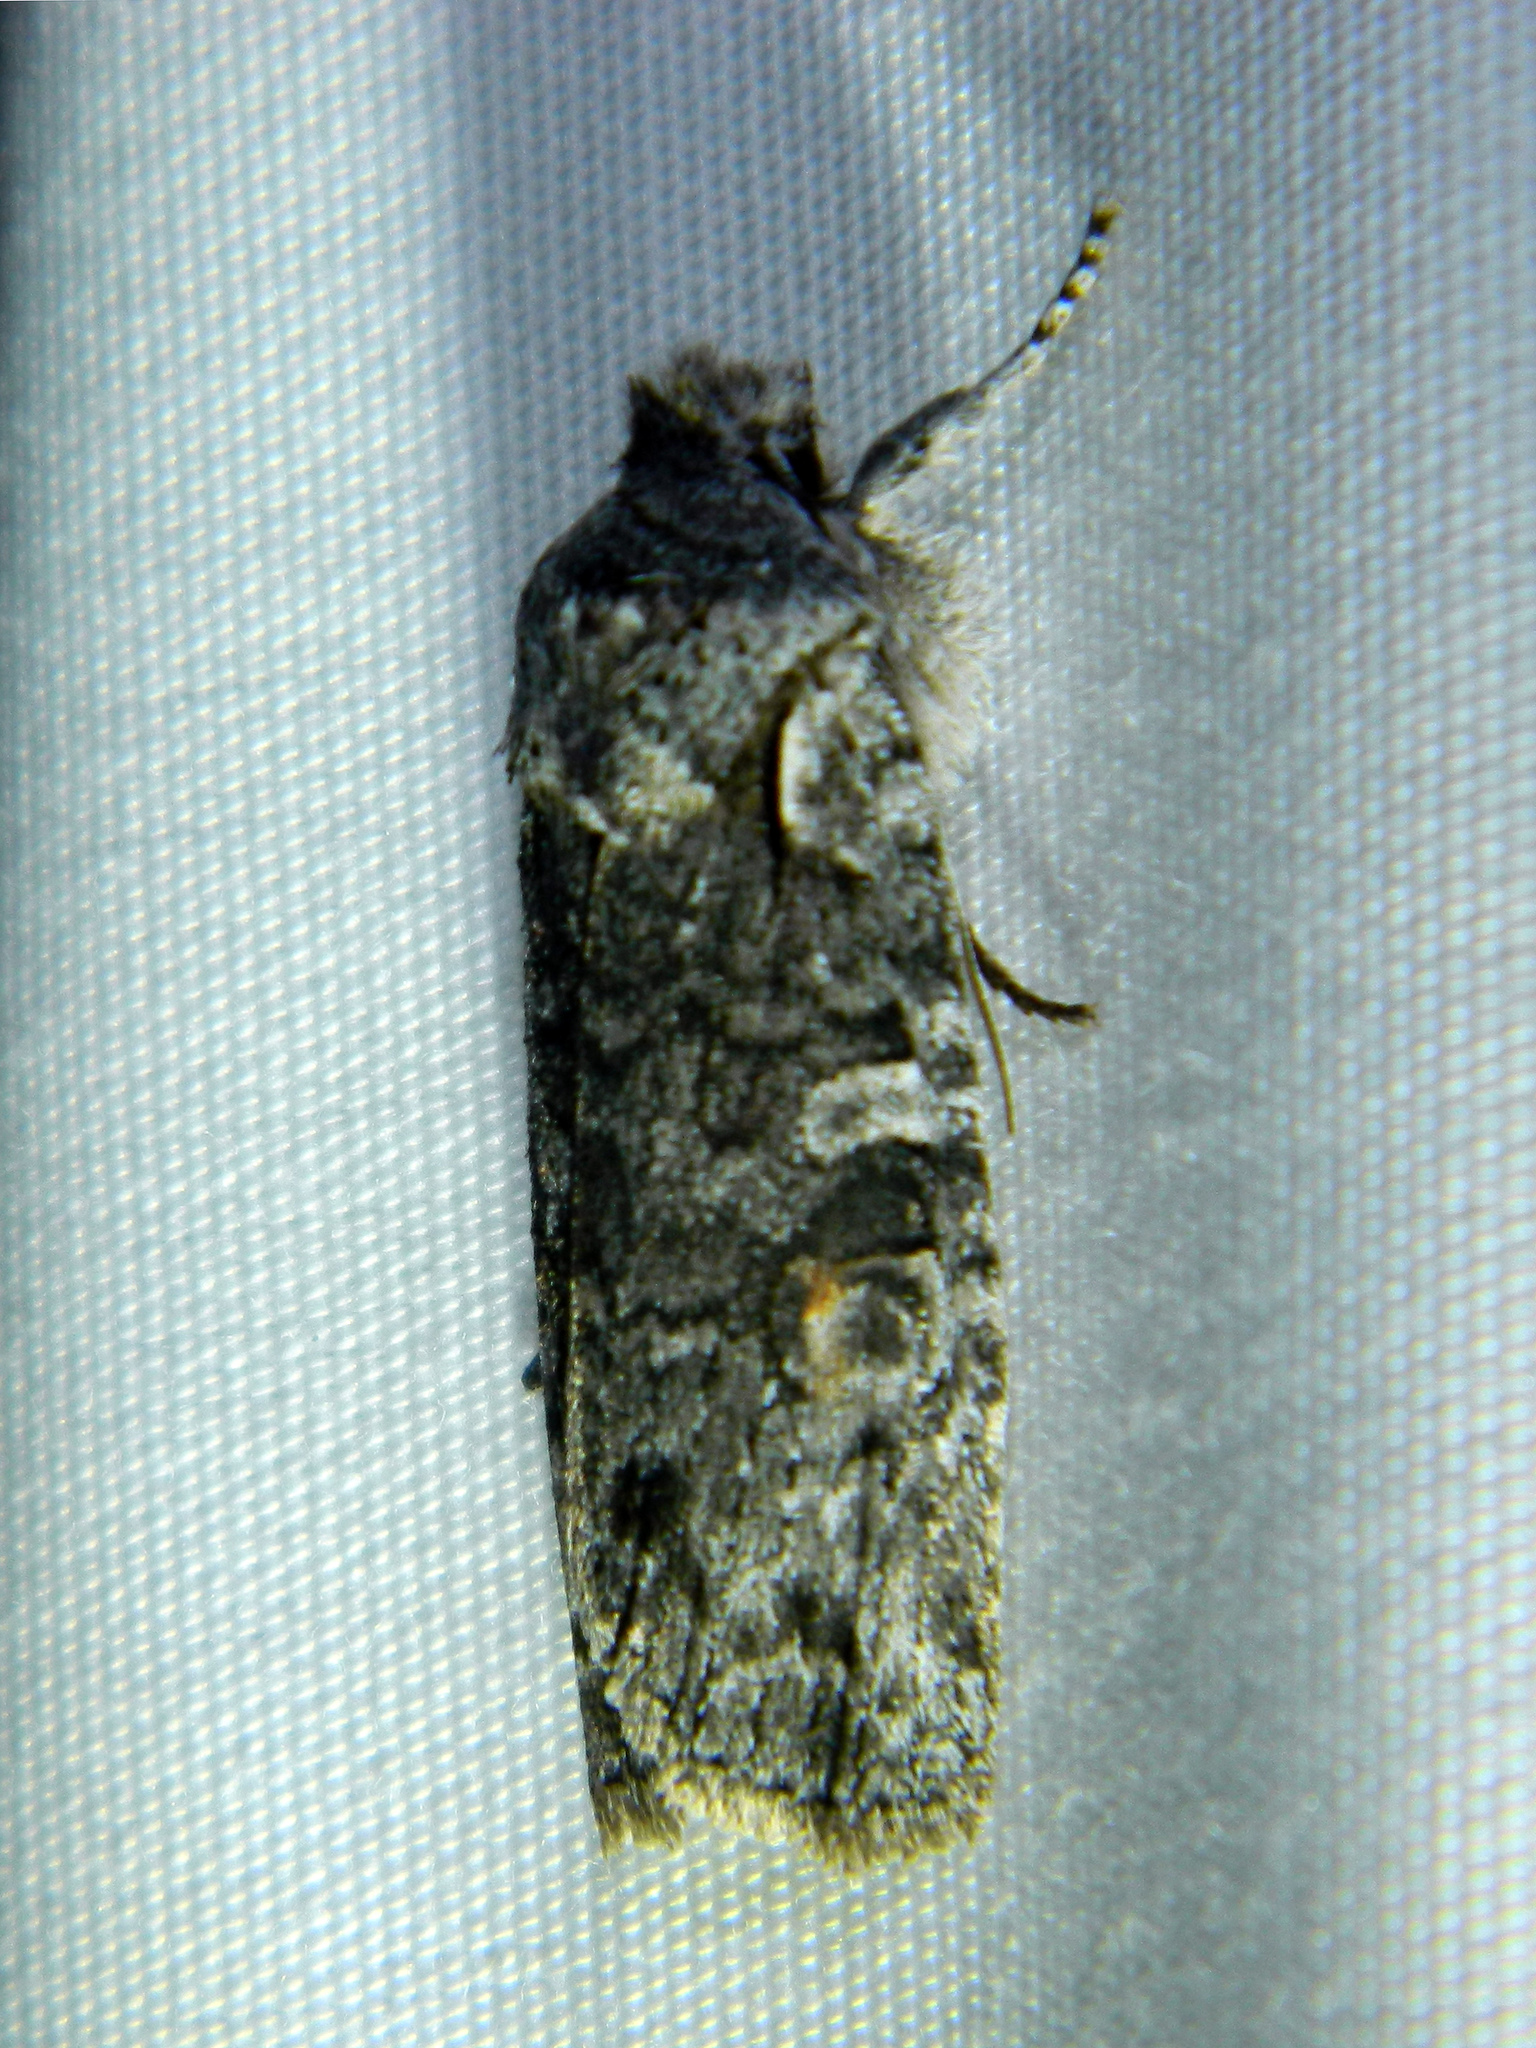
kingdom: Animalia
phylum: Arthropoda
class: Insecta
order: Lepidoptera
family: Noctuidae
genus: Lithophane
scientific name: Lithophane baileyi
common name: Bailey's pinion moth
